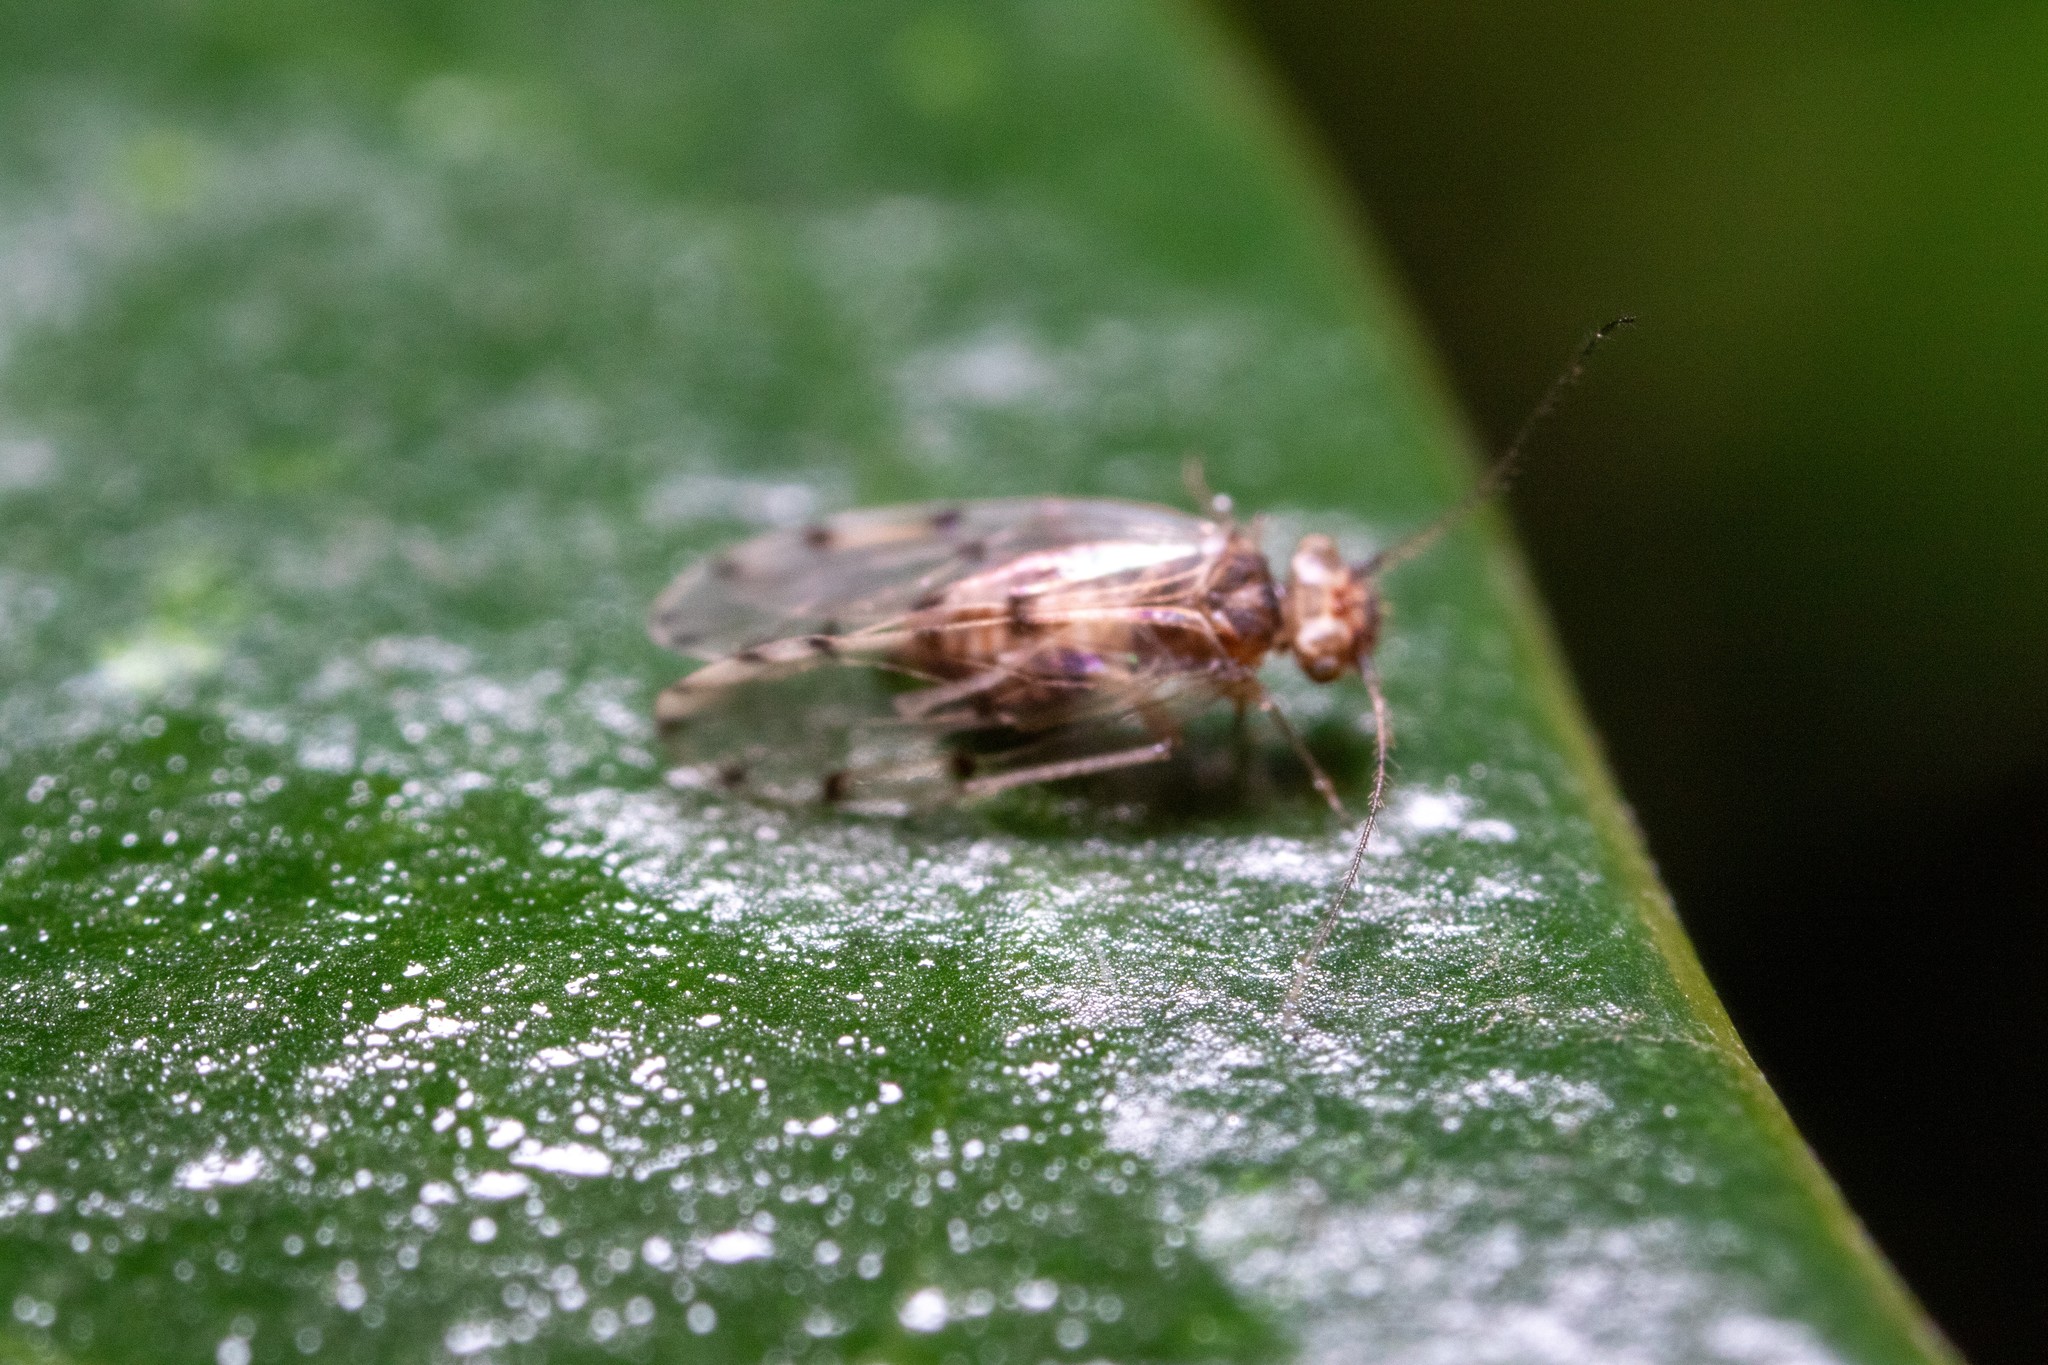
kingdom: Animalia
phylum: Arthropoda
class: Insecta
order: Psocodea
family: Ectopsocidae
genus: Ectopsocus
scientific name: Ectopsocus petersi
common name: Medium-sized bark louse
